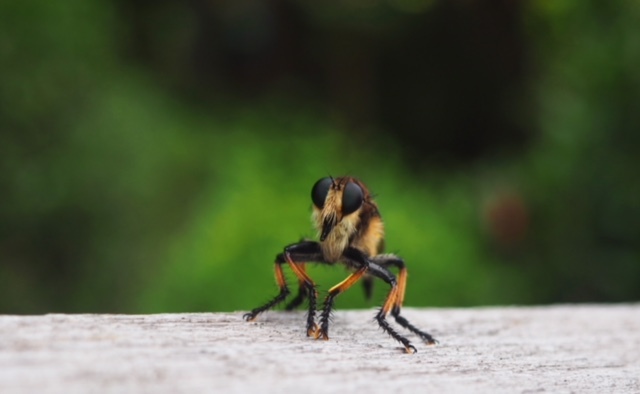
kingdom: Animalia
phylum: Arthropoda
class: Insecta
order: Diptera
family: Asilidae
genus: Promachus
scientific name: Promachus rufipes
